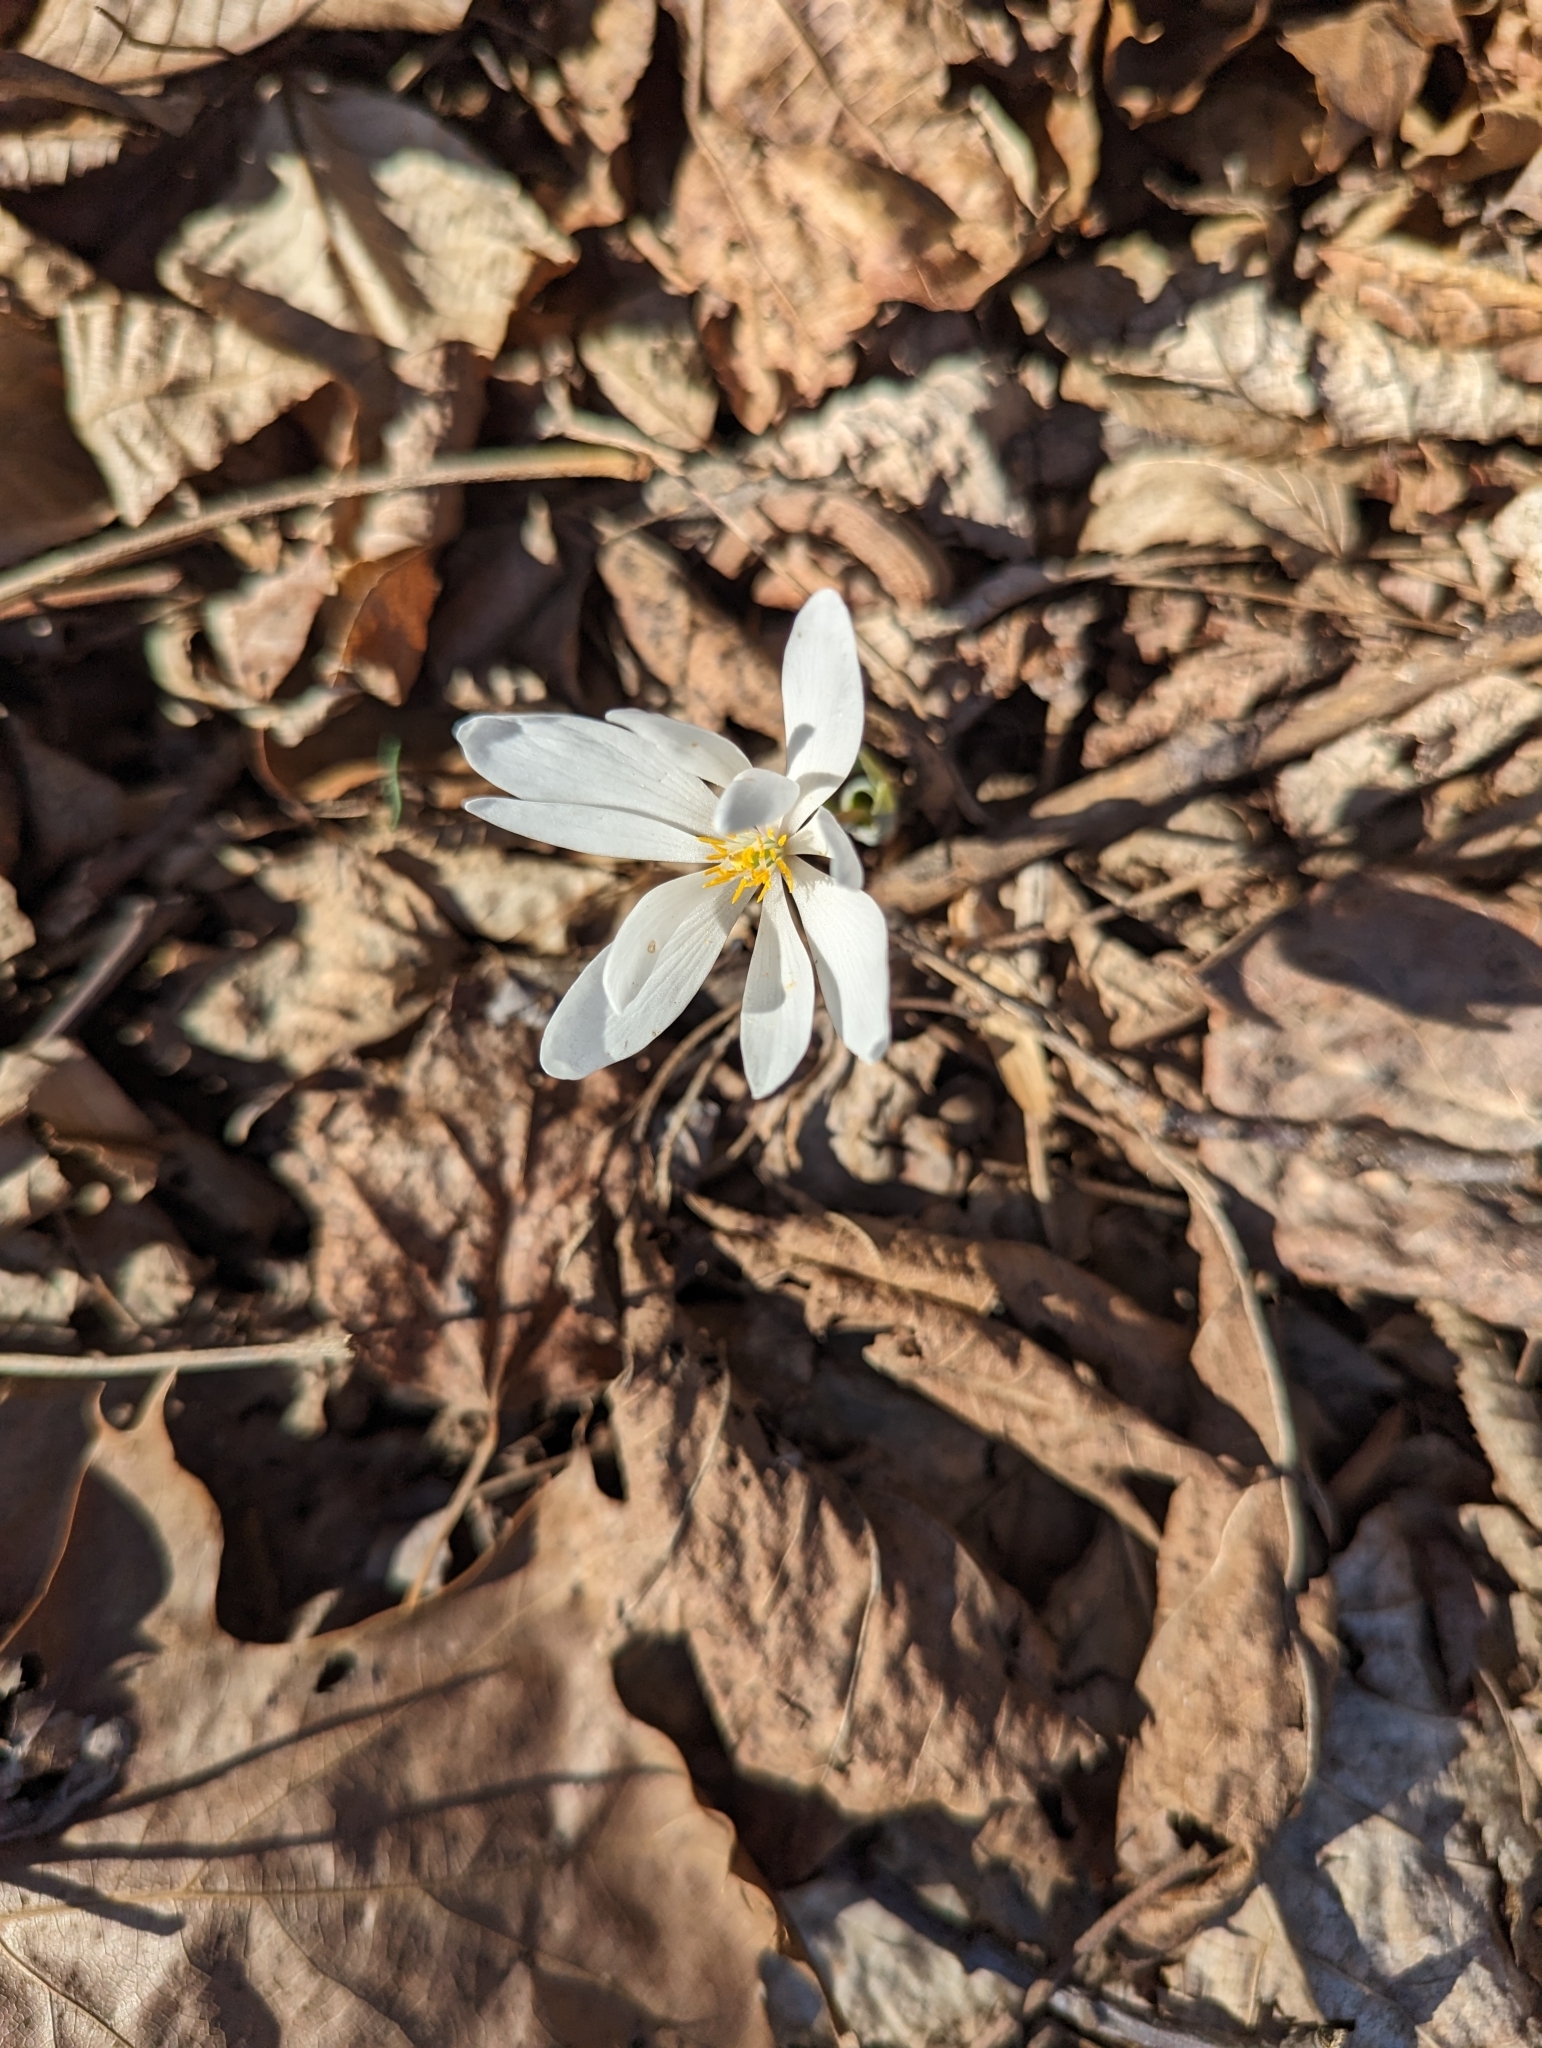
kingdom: Plantae
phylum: Tracheophyta
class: Magnoliopsida
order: Ranunculales
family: Papaveraceae
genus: Sanguinaria
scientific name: Sanguinaria canadensis
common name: Bloodroot
